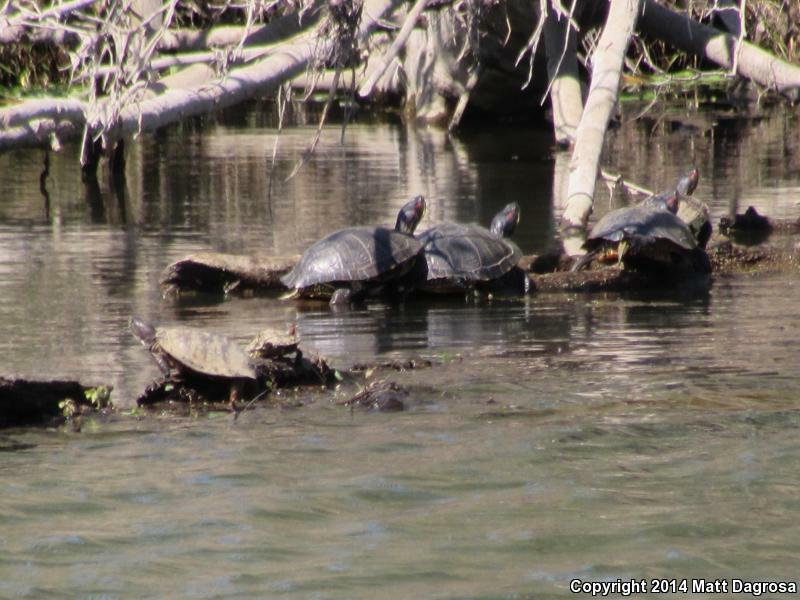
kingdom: Animalia
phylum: Chordata
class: Testudines
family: Emydidae
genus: Trachemys
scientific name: Trachemys scripta
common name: Slider
